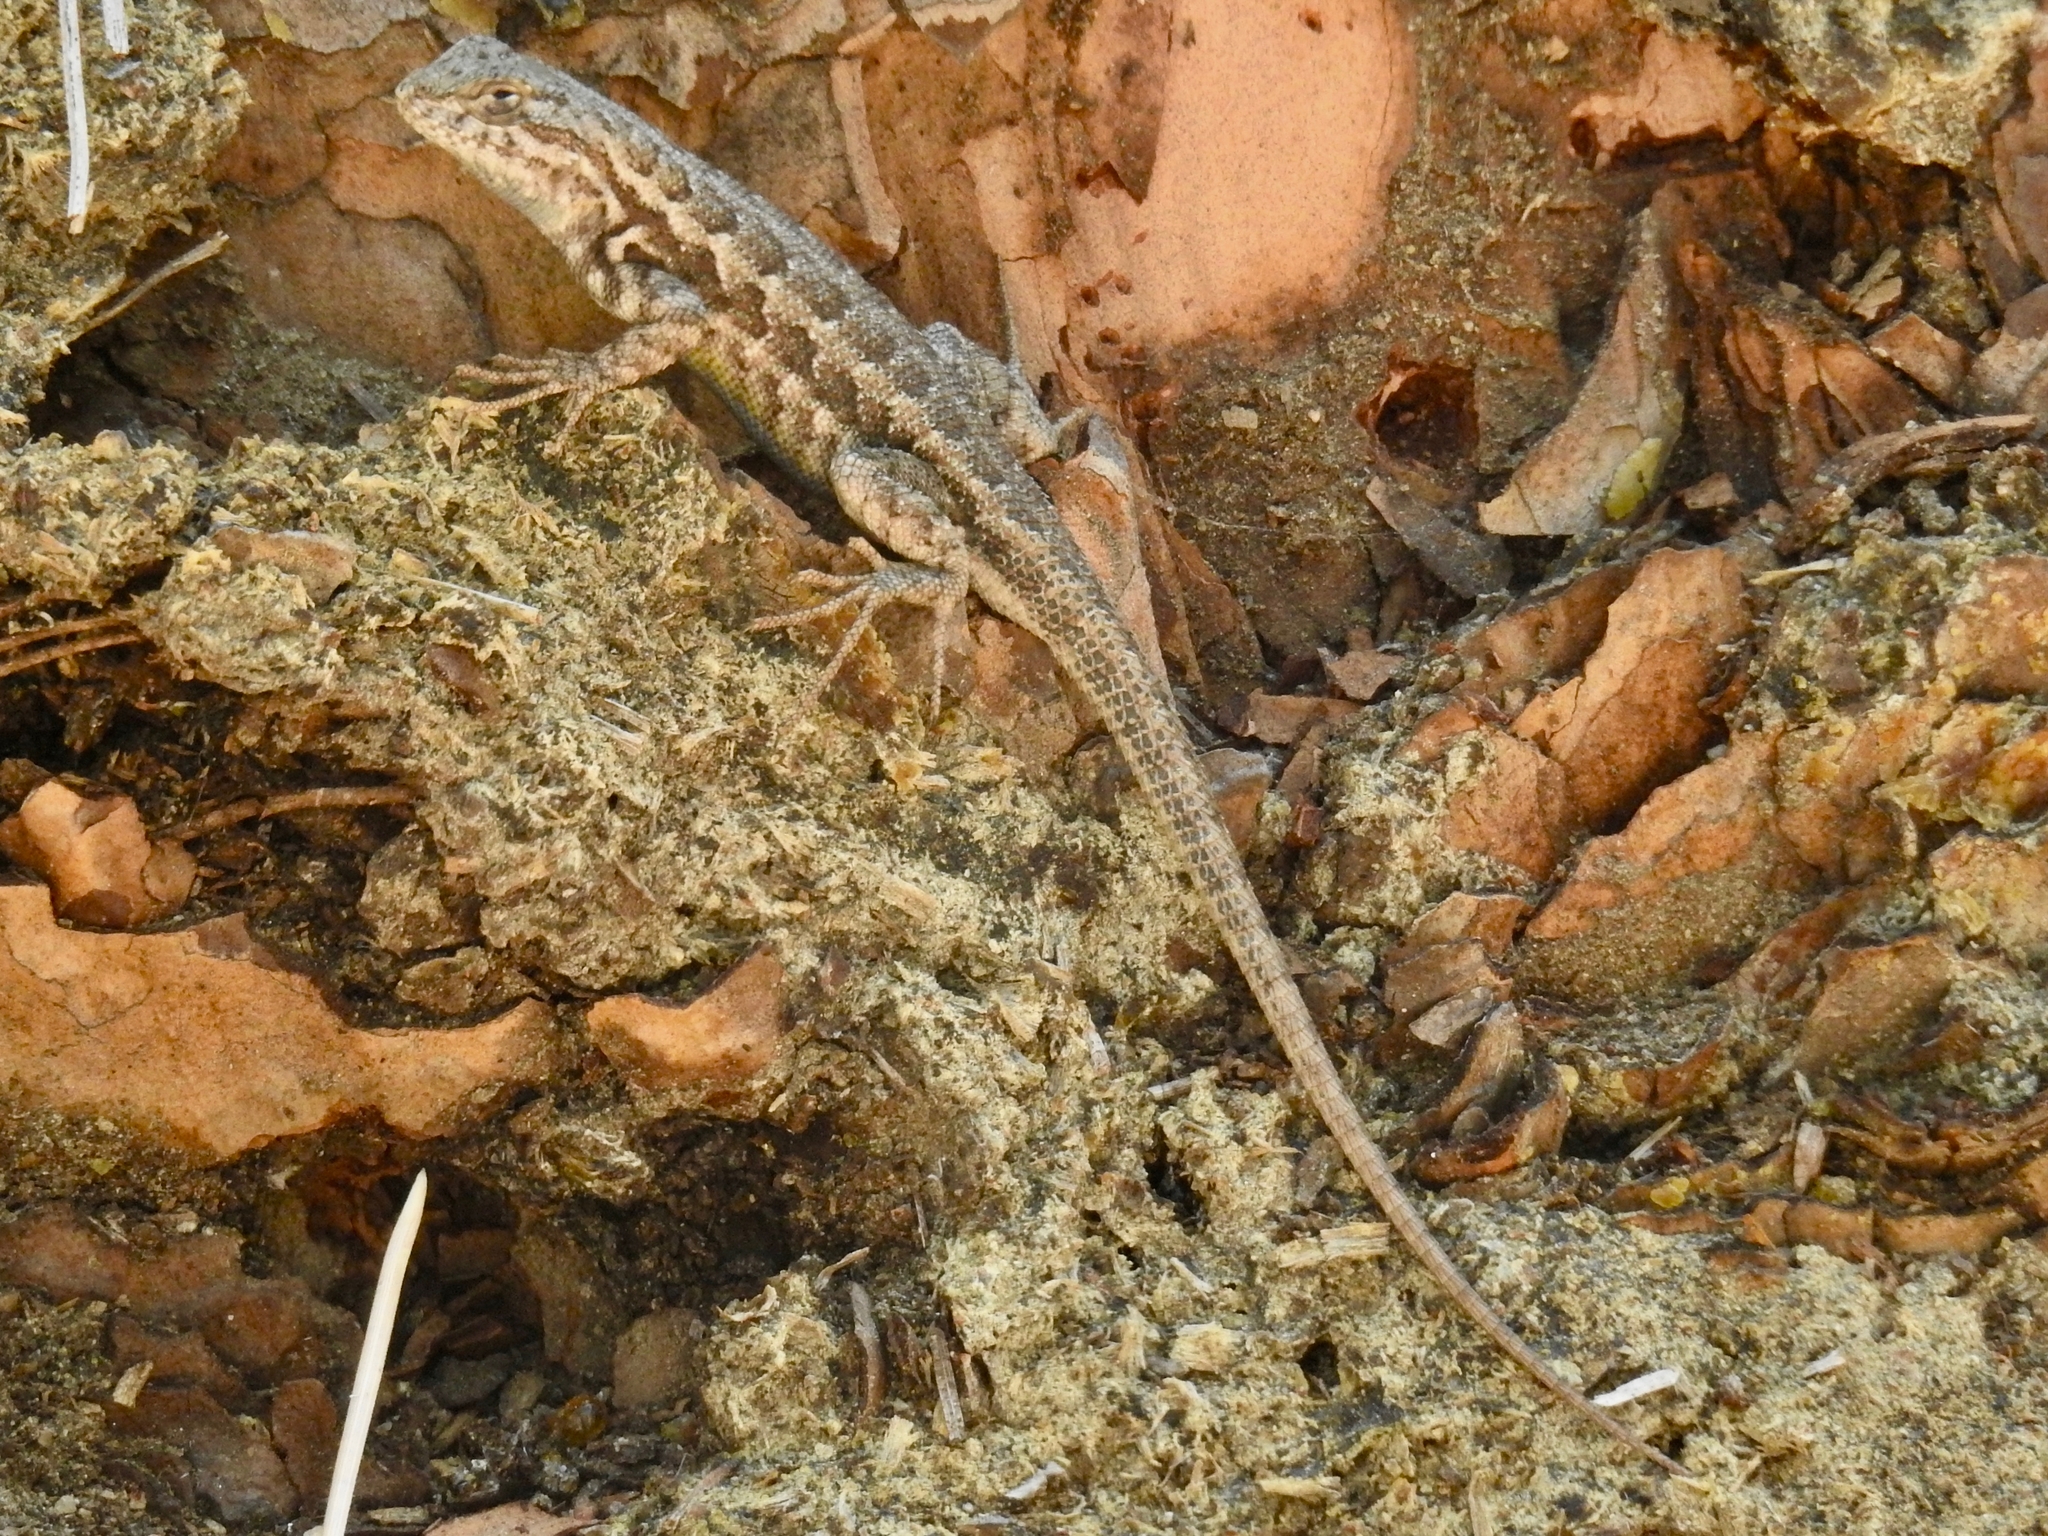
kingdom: Animalia
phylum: Chordata
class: Squamata
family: Phrynosomatidae
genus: Sceloporus
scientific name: Sceloporus graciosus
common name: Sagebrush lizard
